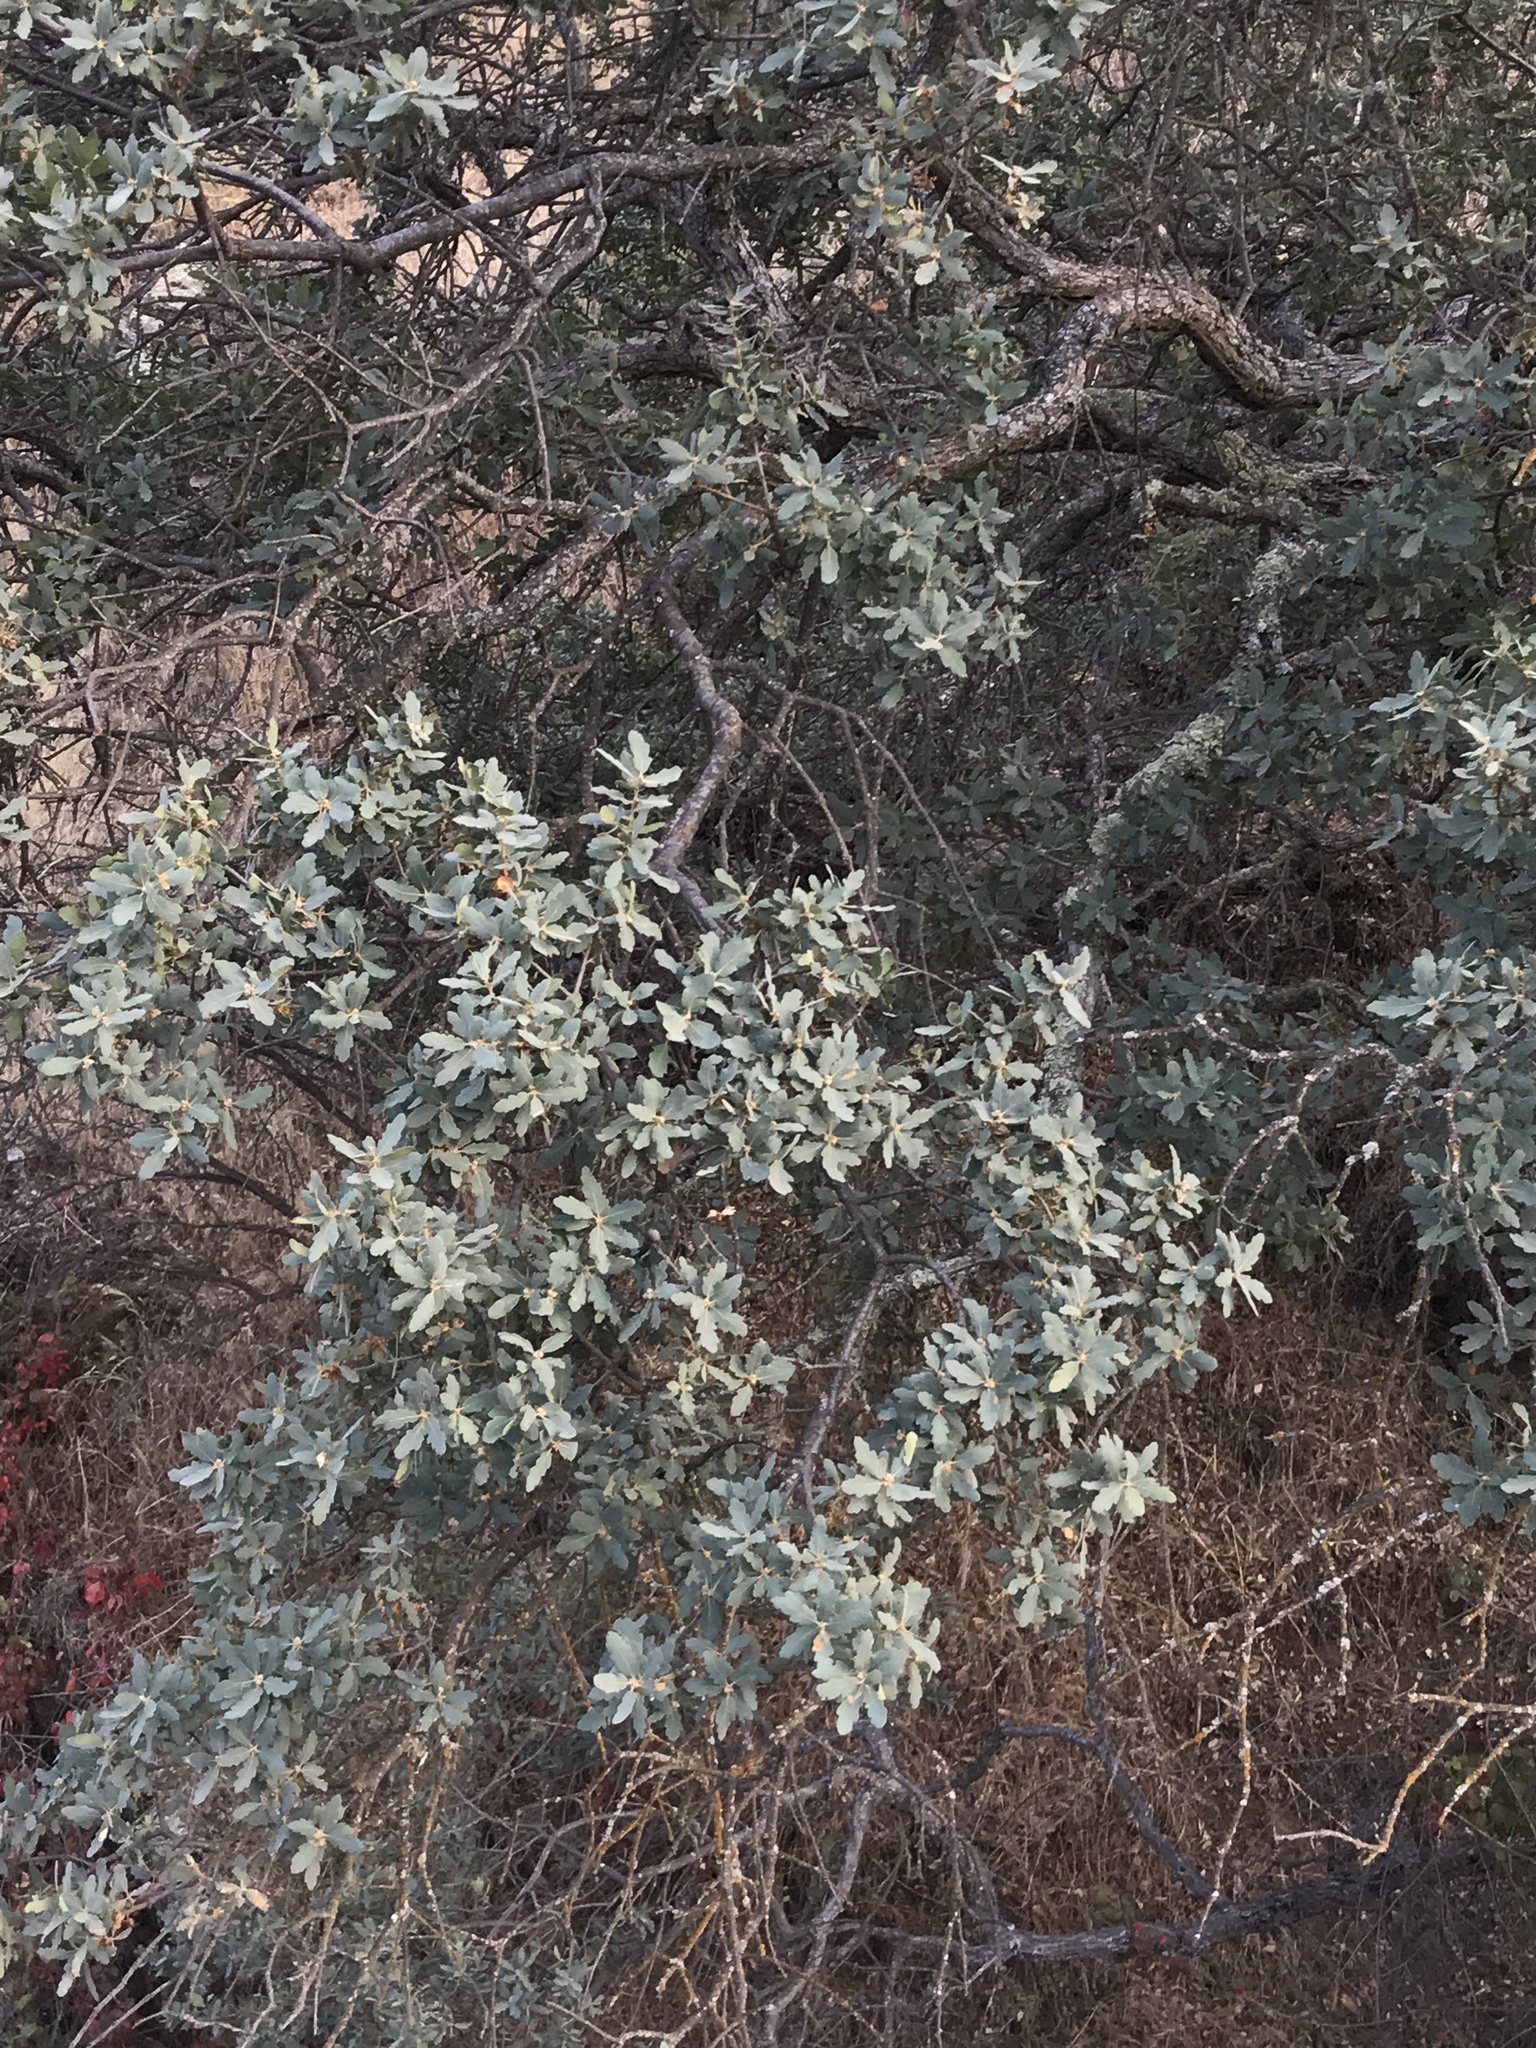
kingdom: Plantae
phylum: Tracheophyta
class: Magnoliopsida
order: Fagales
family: Fagaceae
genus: Quercus
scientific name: Quercus douglasii
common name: Blue oak
